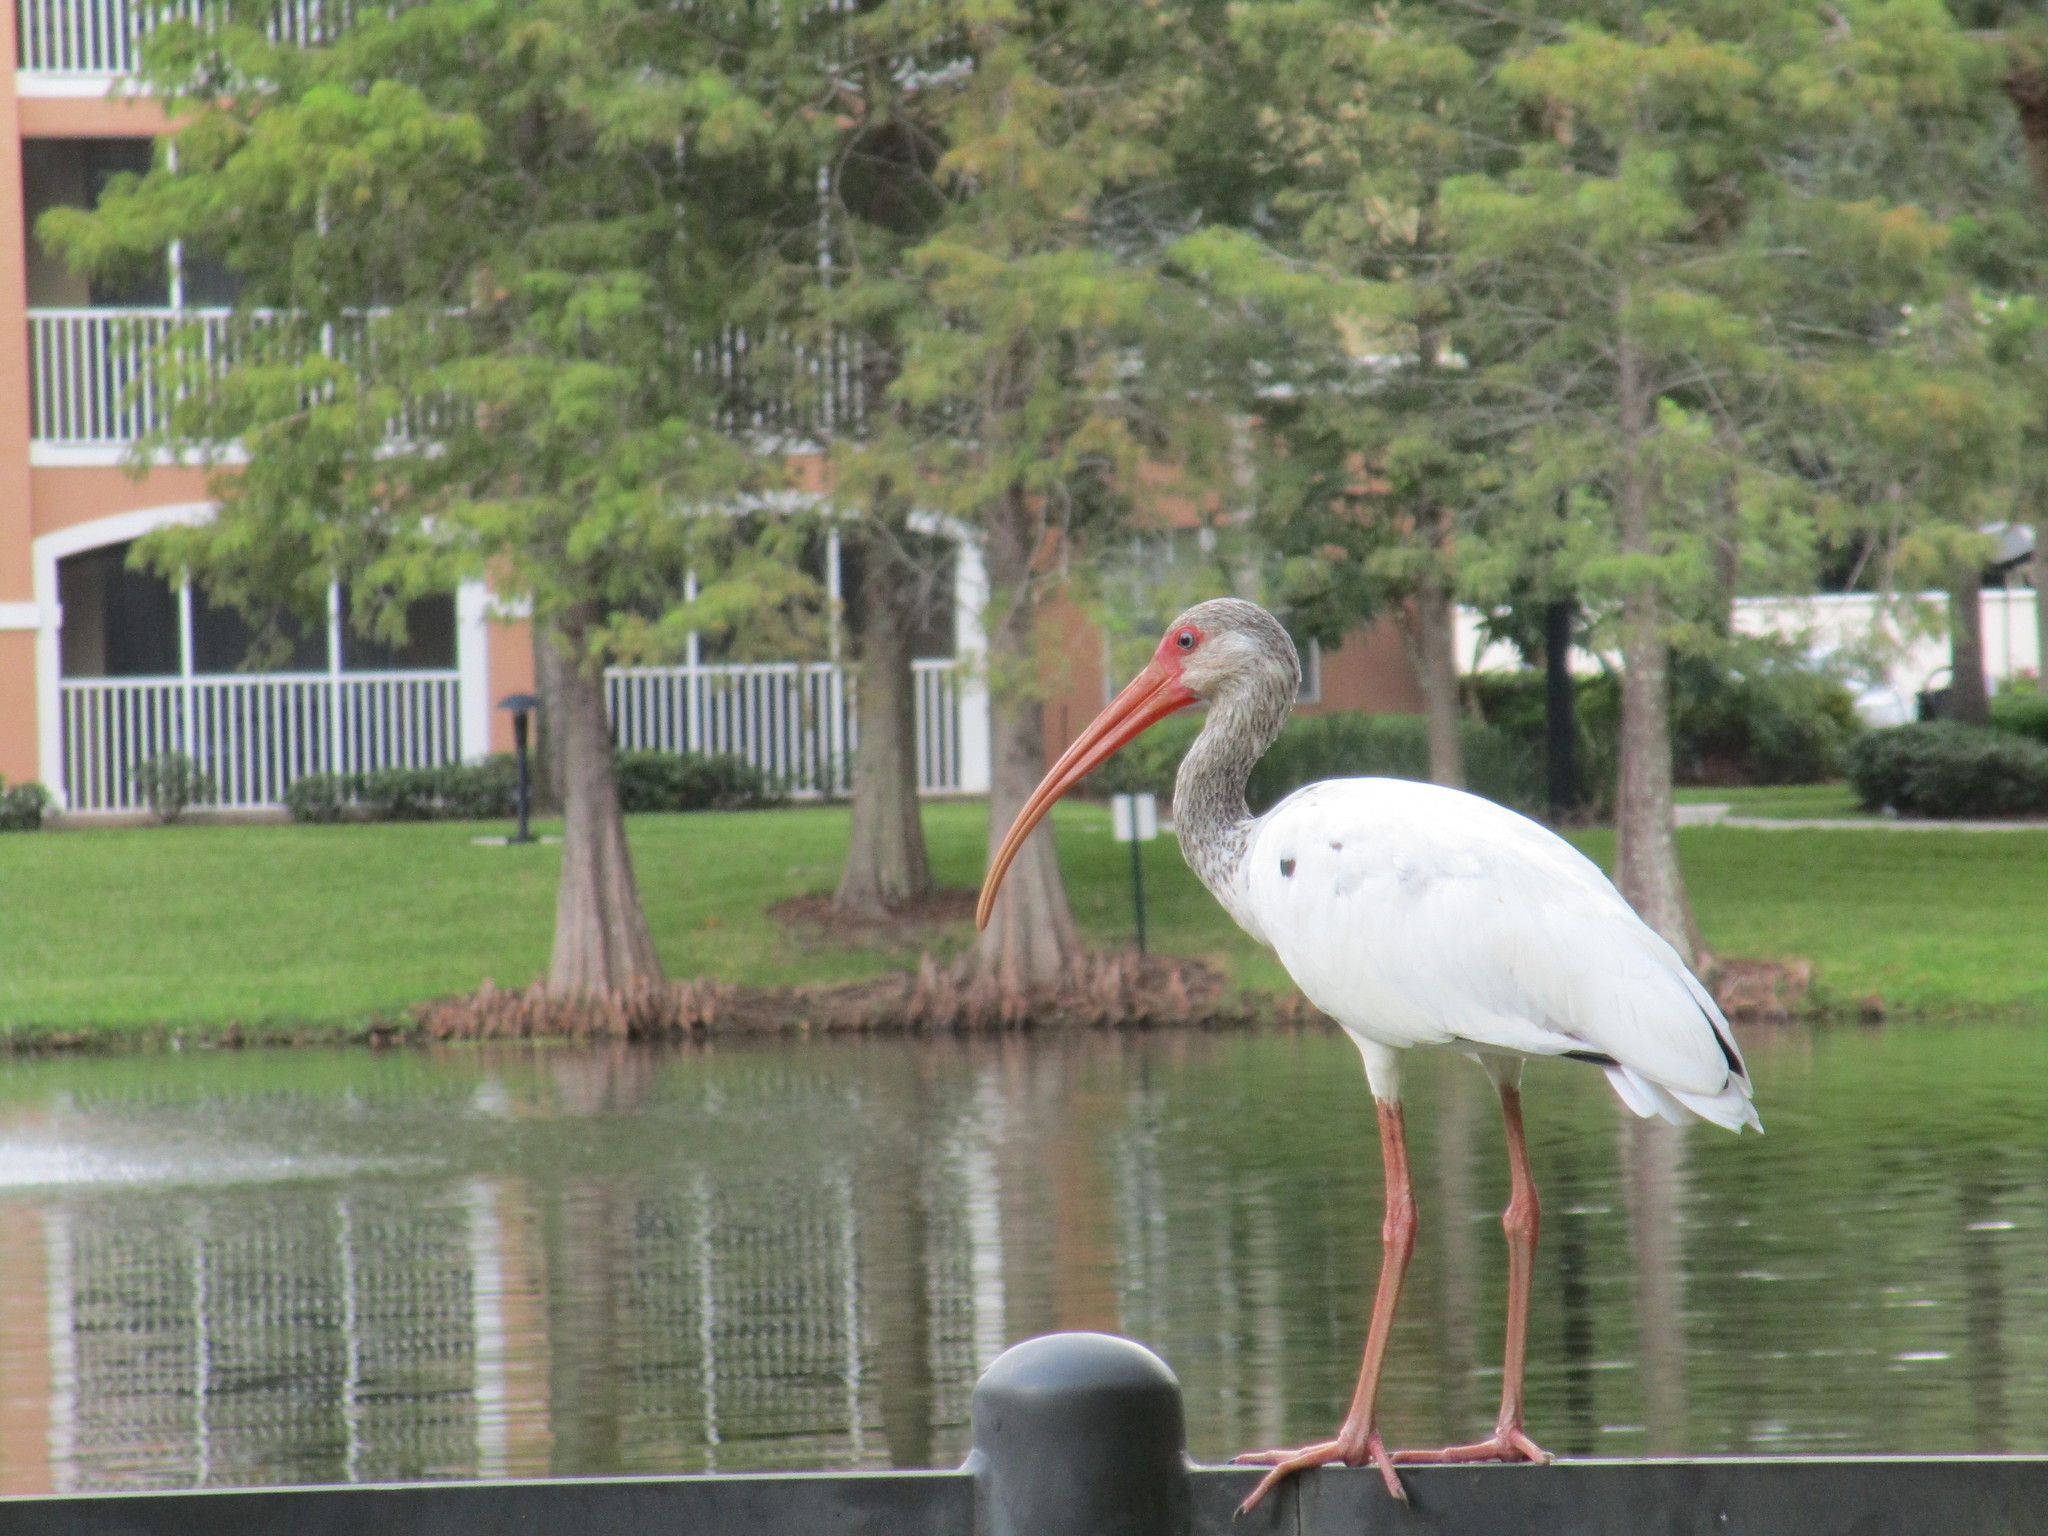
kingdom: Animalia
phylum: Chordata
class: Aves
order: Pelecaniformes
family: Threskiornithidae
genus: Eudocimus
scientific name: Eudocimus albus
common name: White ibis
